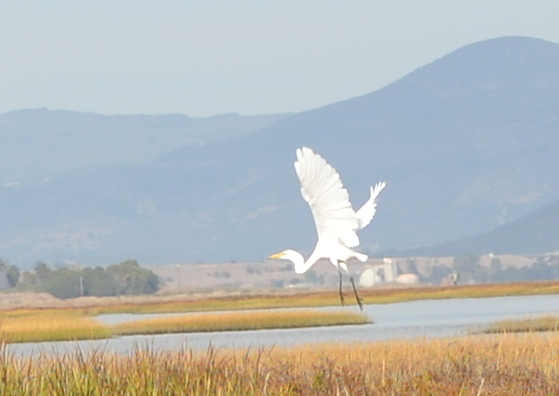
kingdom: Animalia
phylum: Chordata
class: Aves
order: Pelecaniformes
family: Ardeidae
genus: Ardea
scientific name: Ardea alba
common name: Great egret
